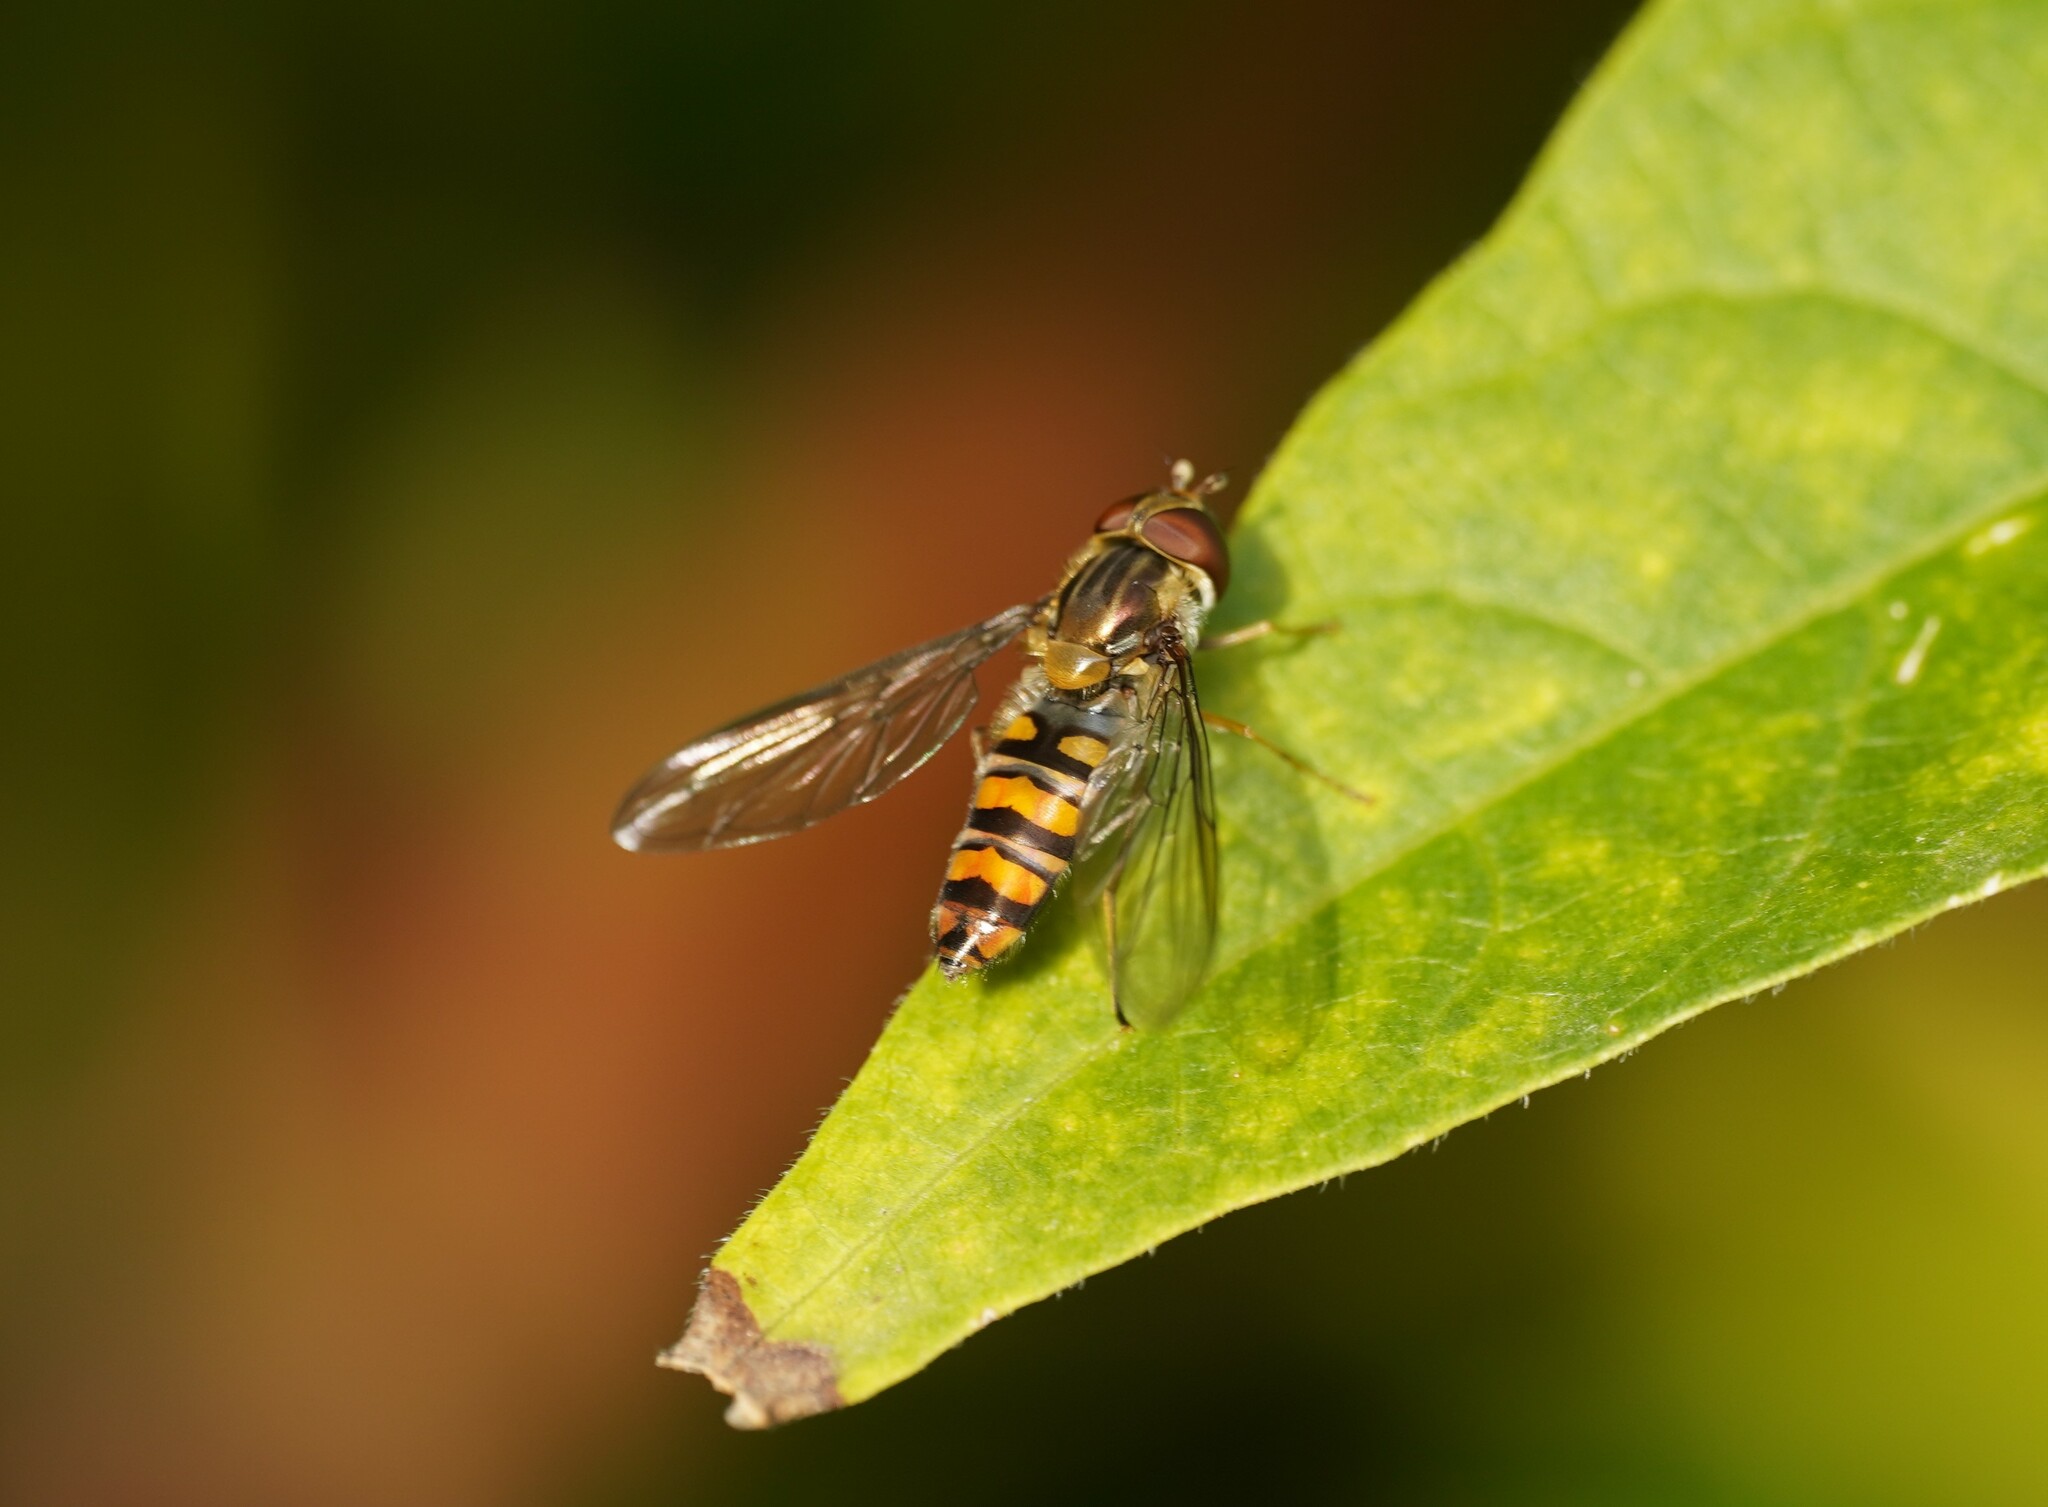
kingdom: Animalia
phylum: Arthropoda
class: Insecta
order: Diptera
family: Syrphidae
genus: Episyrphus
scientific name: Episyrphus balteatus
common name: Marmalade hoverfly
